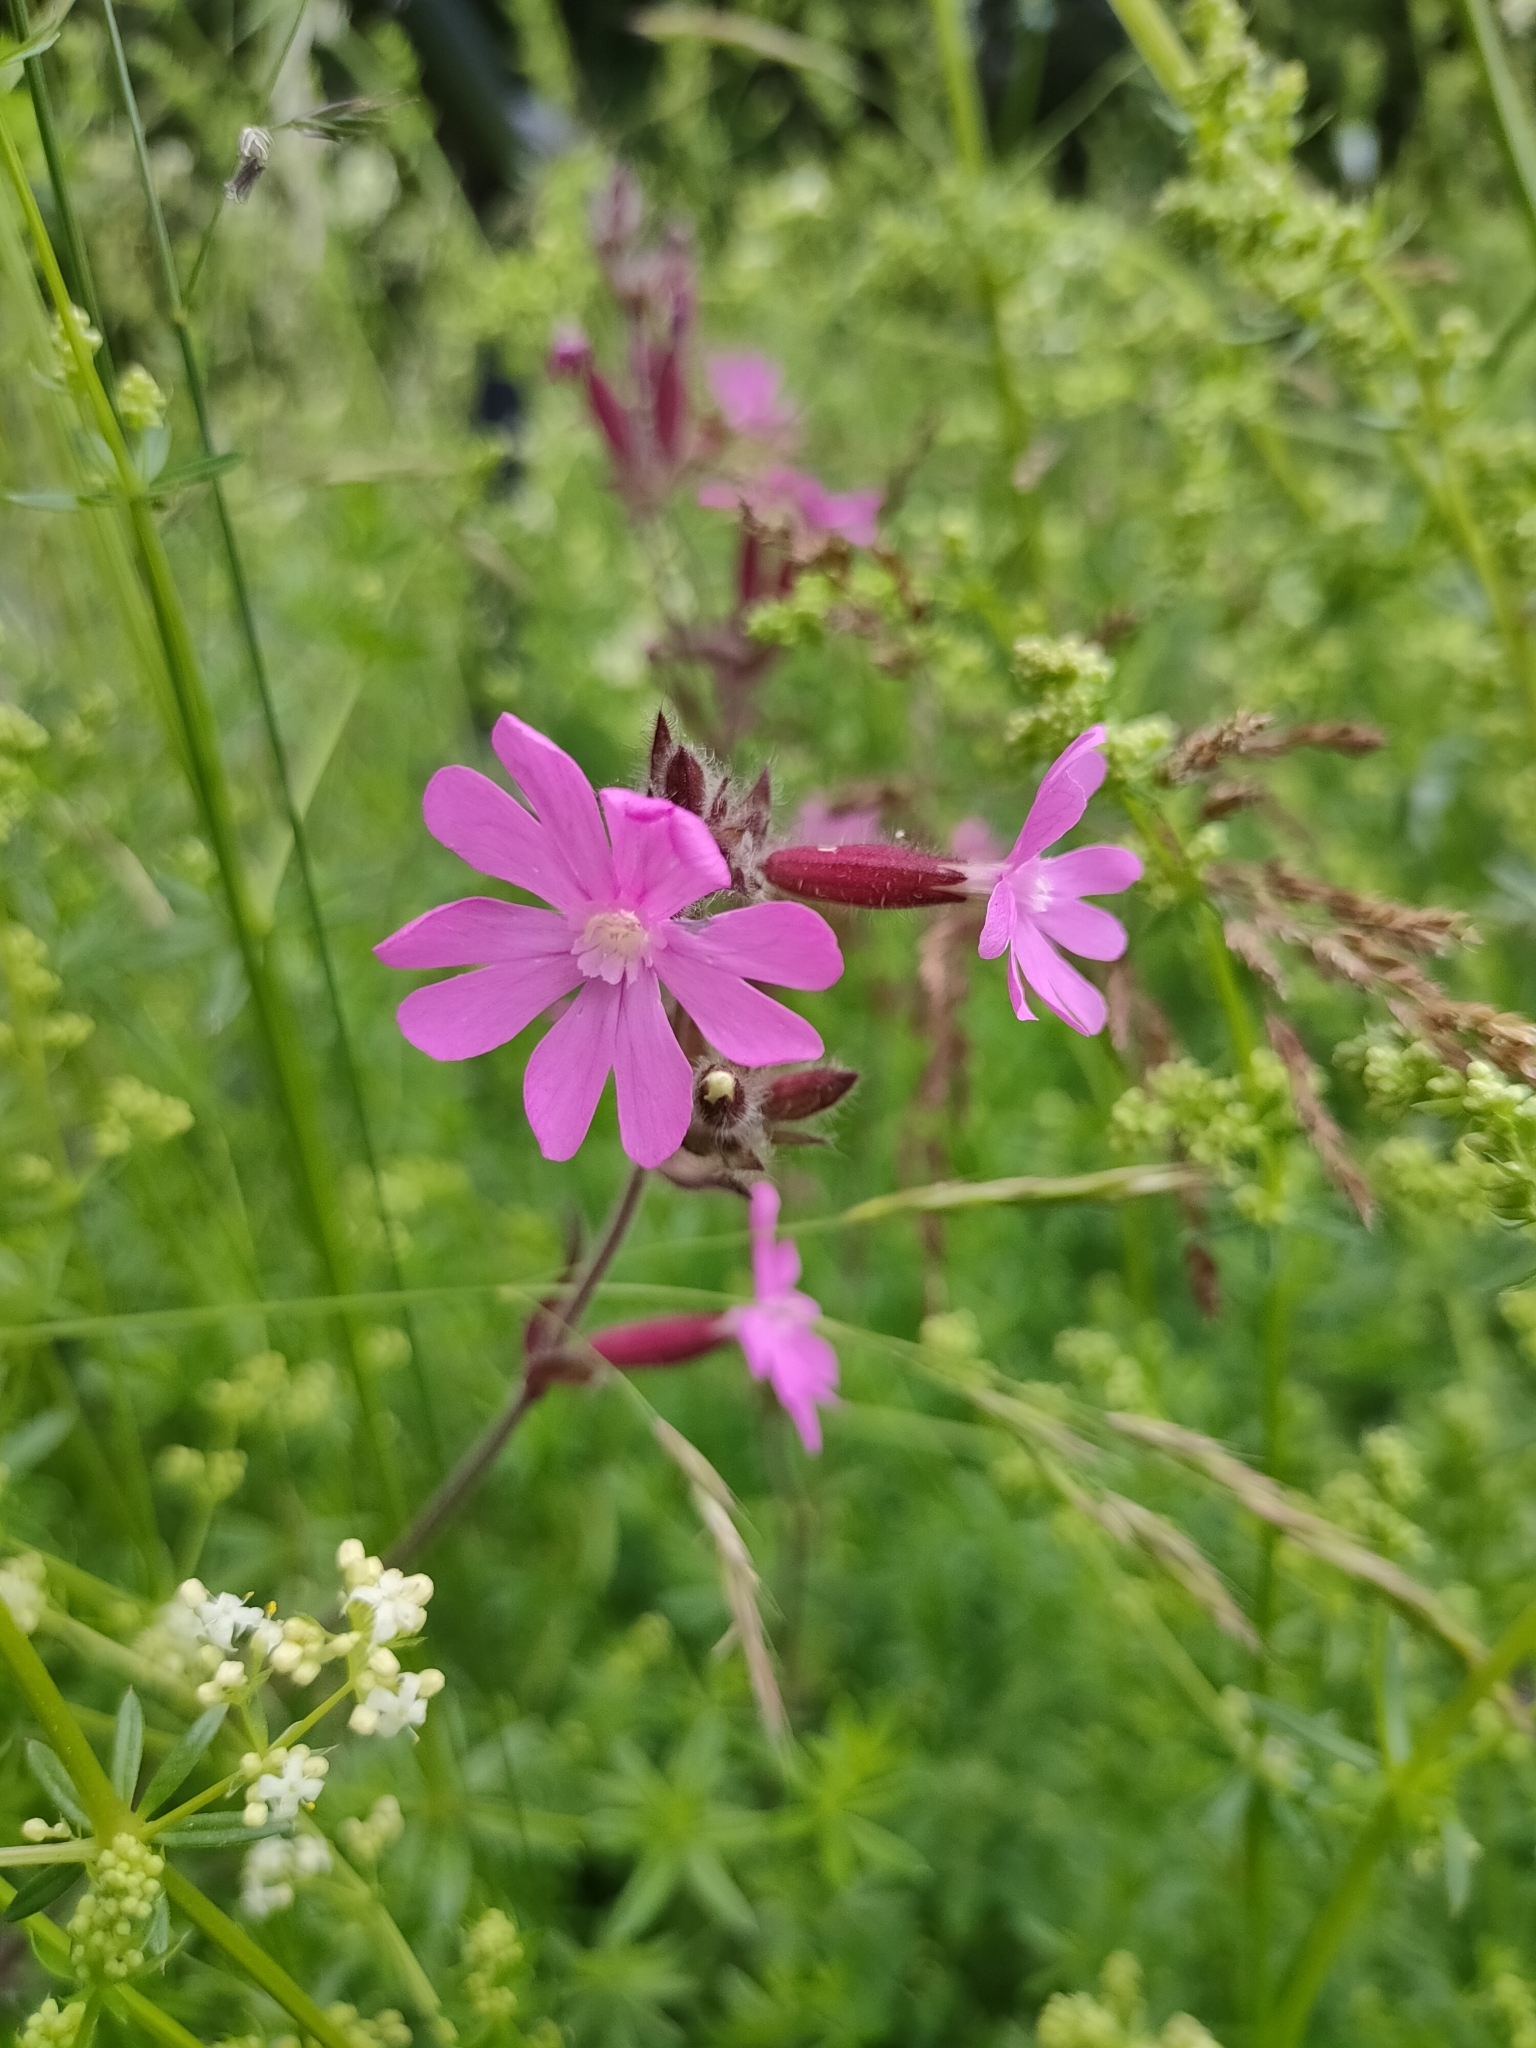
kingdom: Plantae
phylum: Tracheophyta
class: Magnoliopsida
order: Caryophyllales
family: Caryophyllaceae
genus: Silene
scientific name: Silene dioica
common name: Red campion
